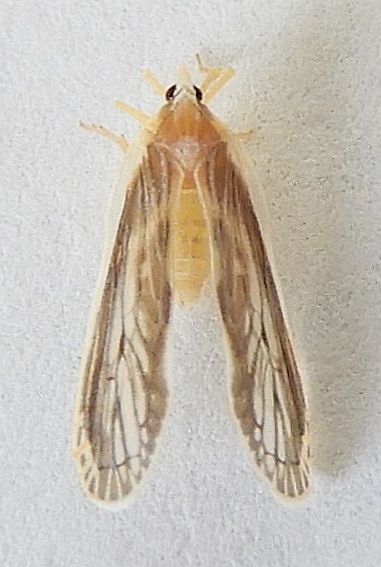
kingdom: Animalia
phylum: Arthropoda
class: Insecta
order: Hemiptera
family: Derbidae
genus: Anotia
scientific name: Anotia lineata
